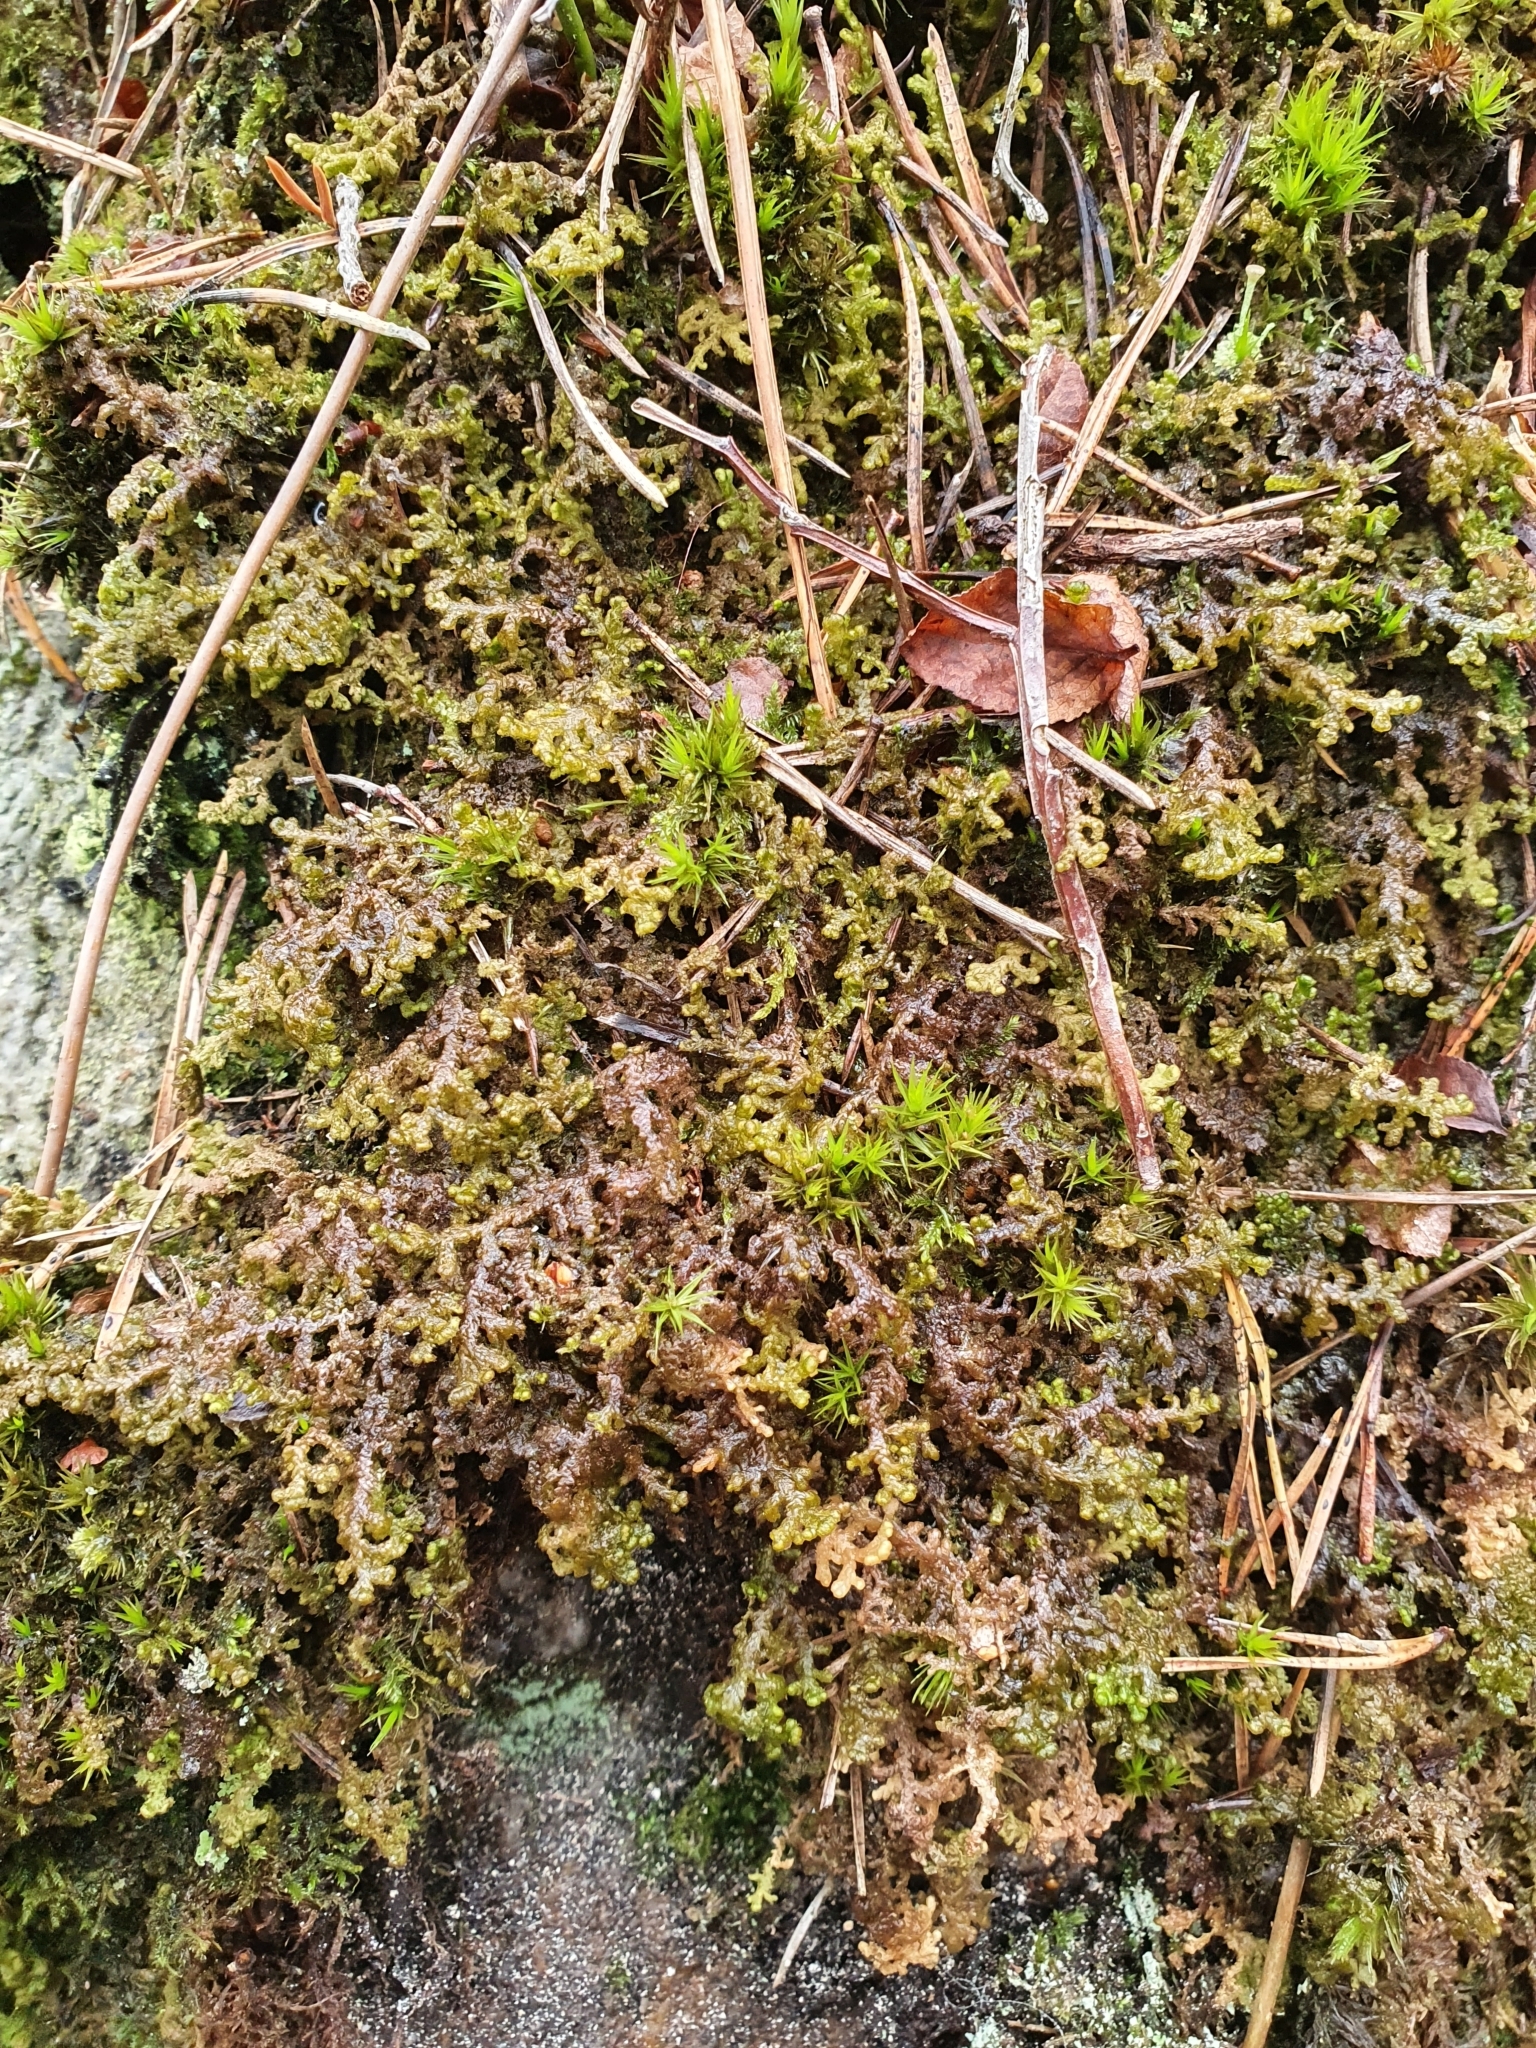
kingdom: Plantae
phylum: Marchantiophyta
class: Jungermanniopsida
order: Ptilidiales
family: Ptilidiaceae
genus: Ptilidium
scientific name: Ptilidium ciliare
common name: Ciliate fringewort
